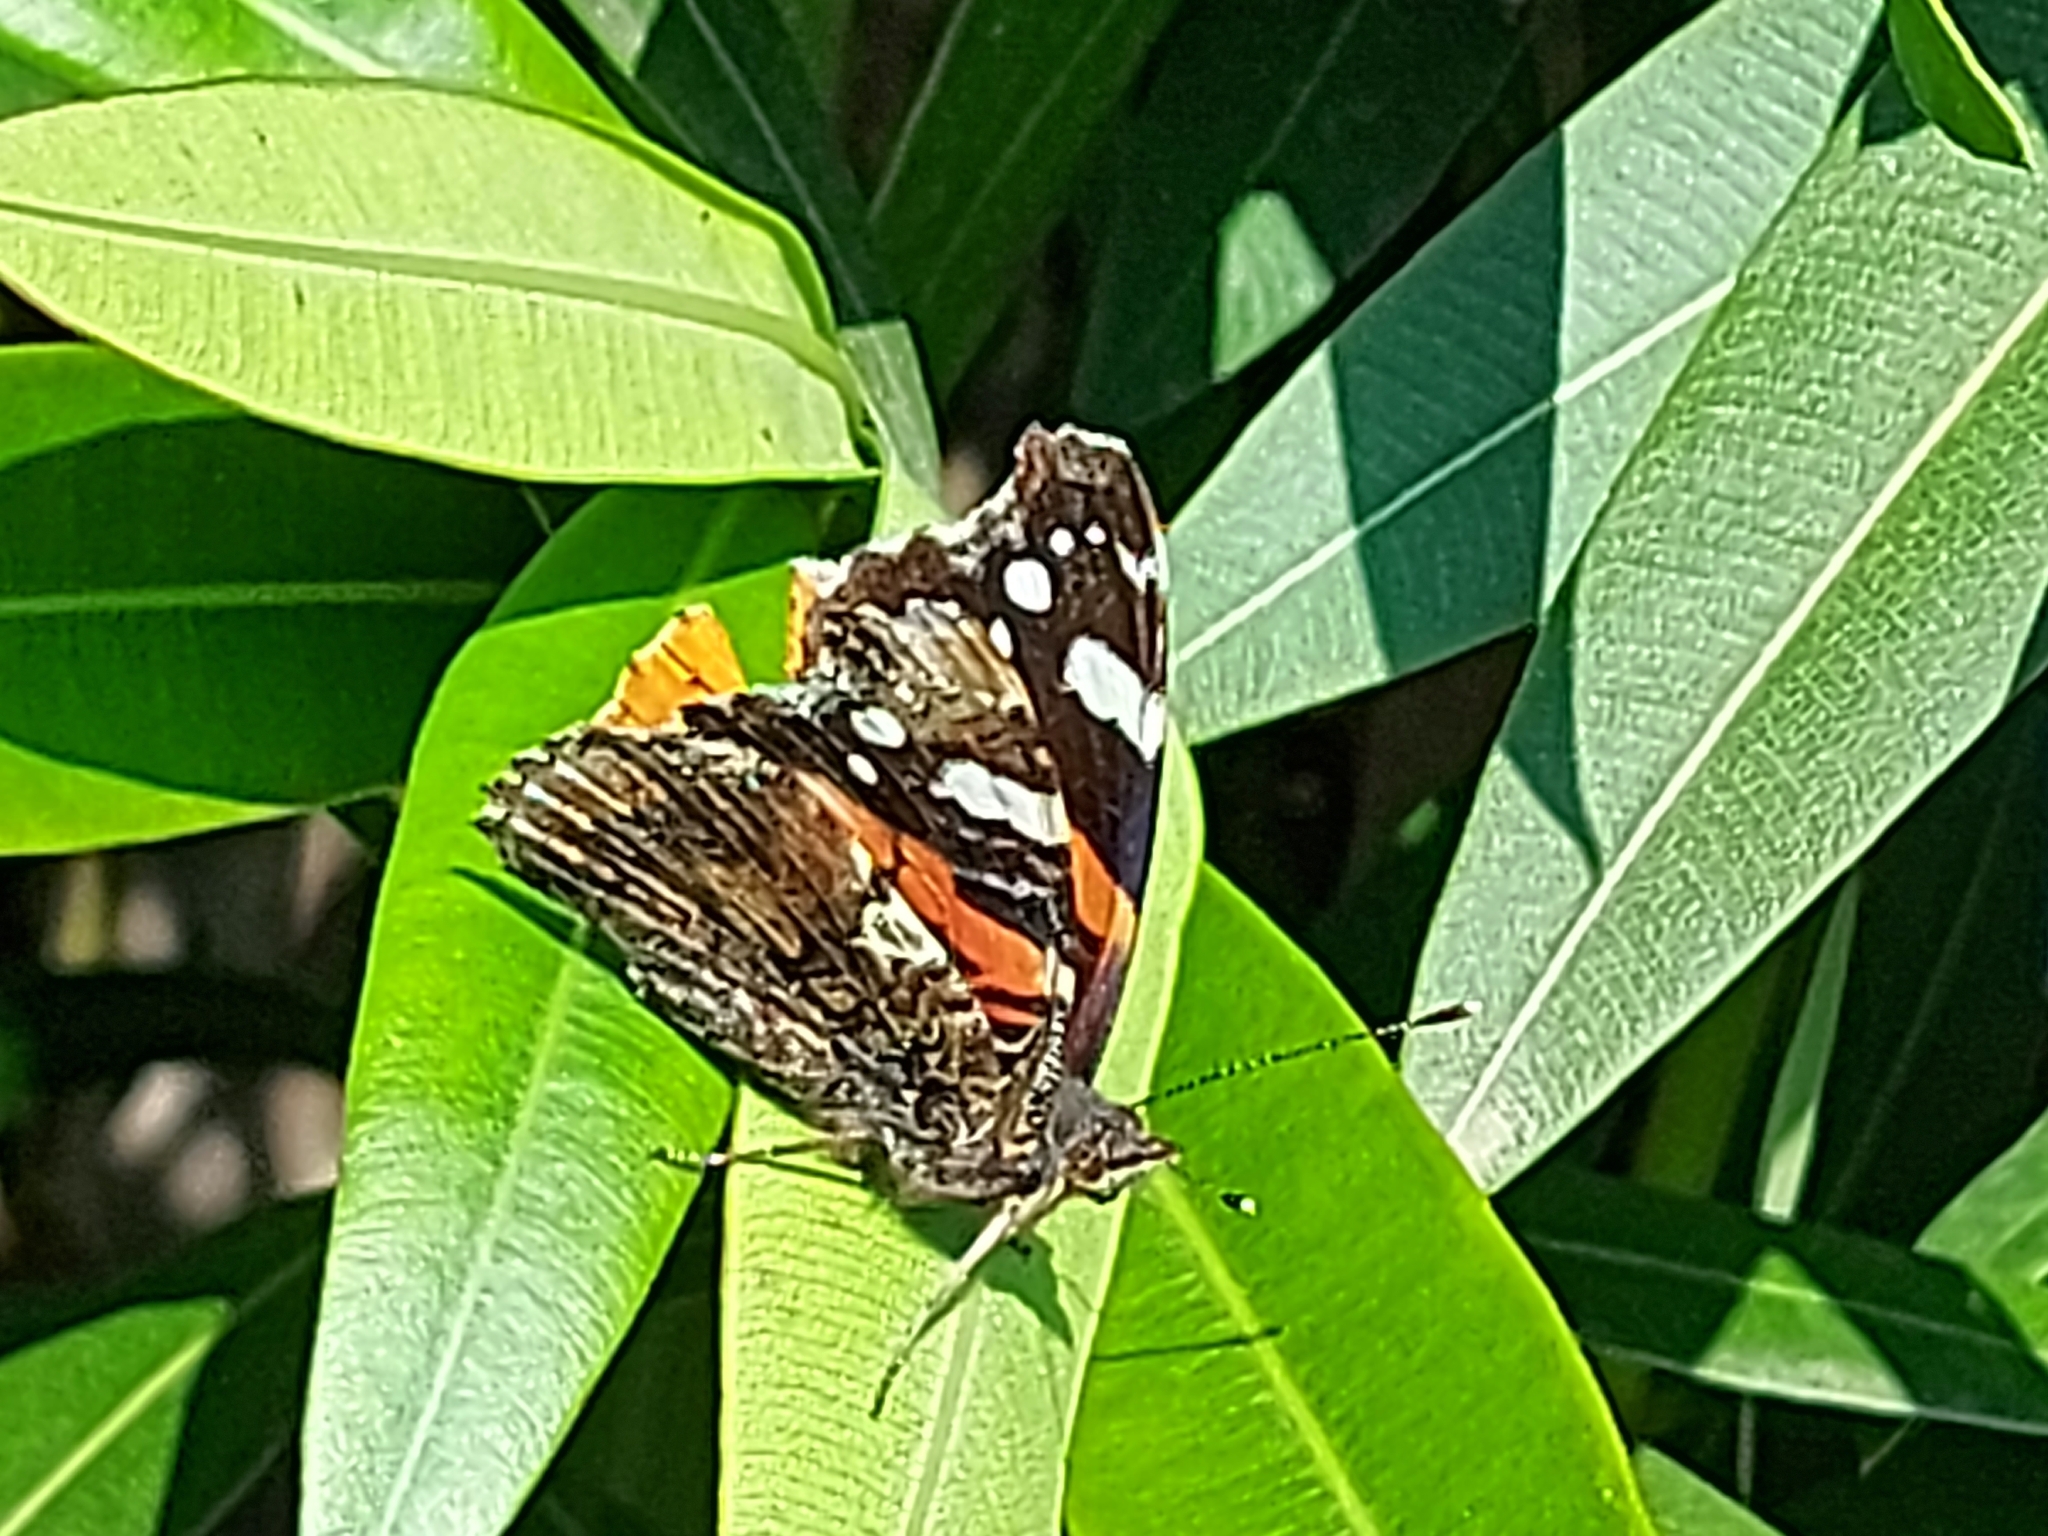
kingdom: Animalia
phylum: Arthropoda
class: Insecta
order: Lepidoptera
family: Nymphalidae
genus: Vanessa
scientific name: Vanessa atalanta
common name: Red admiral
